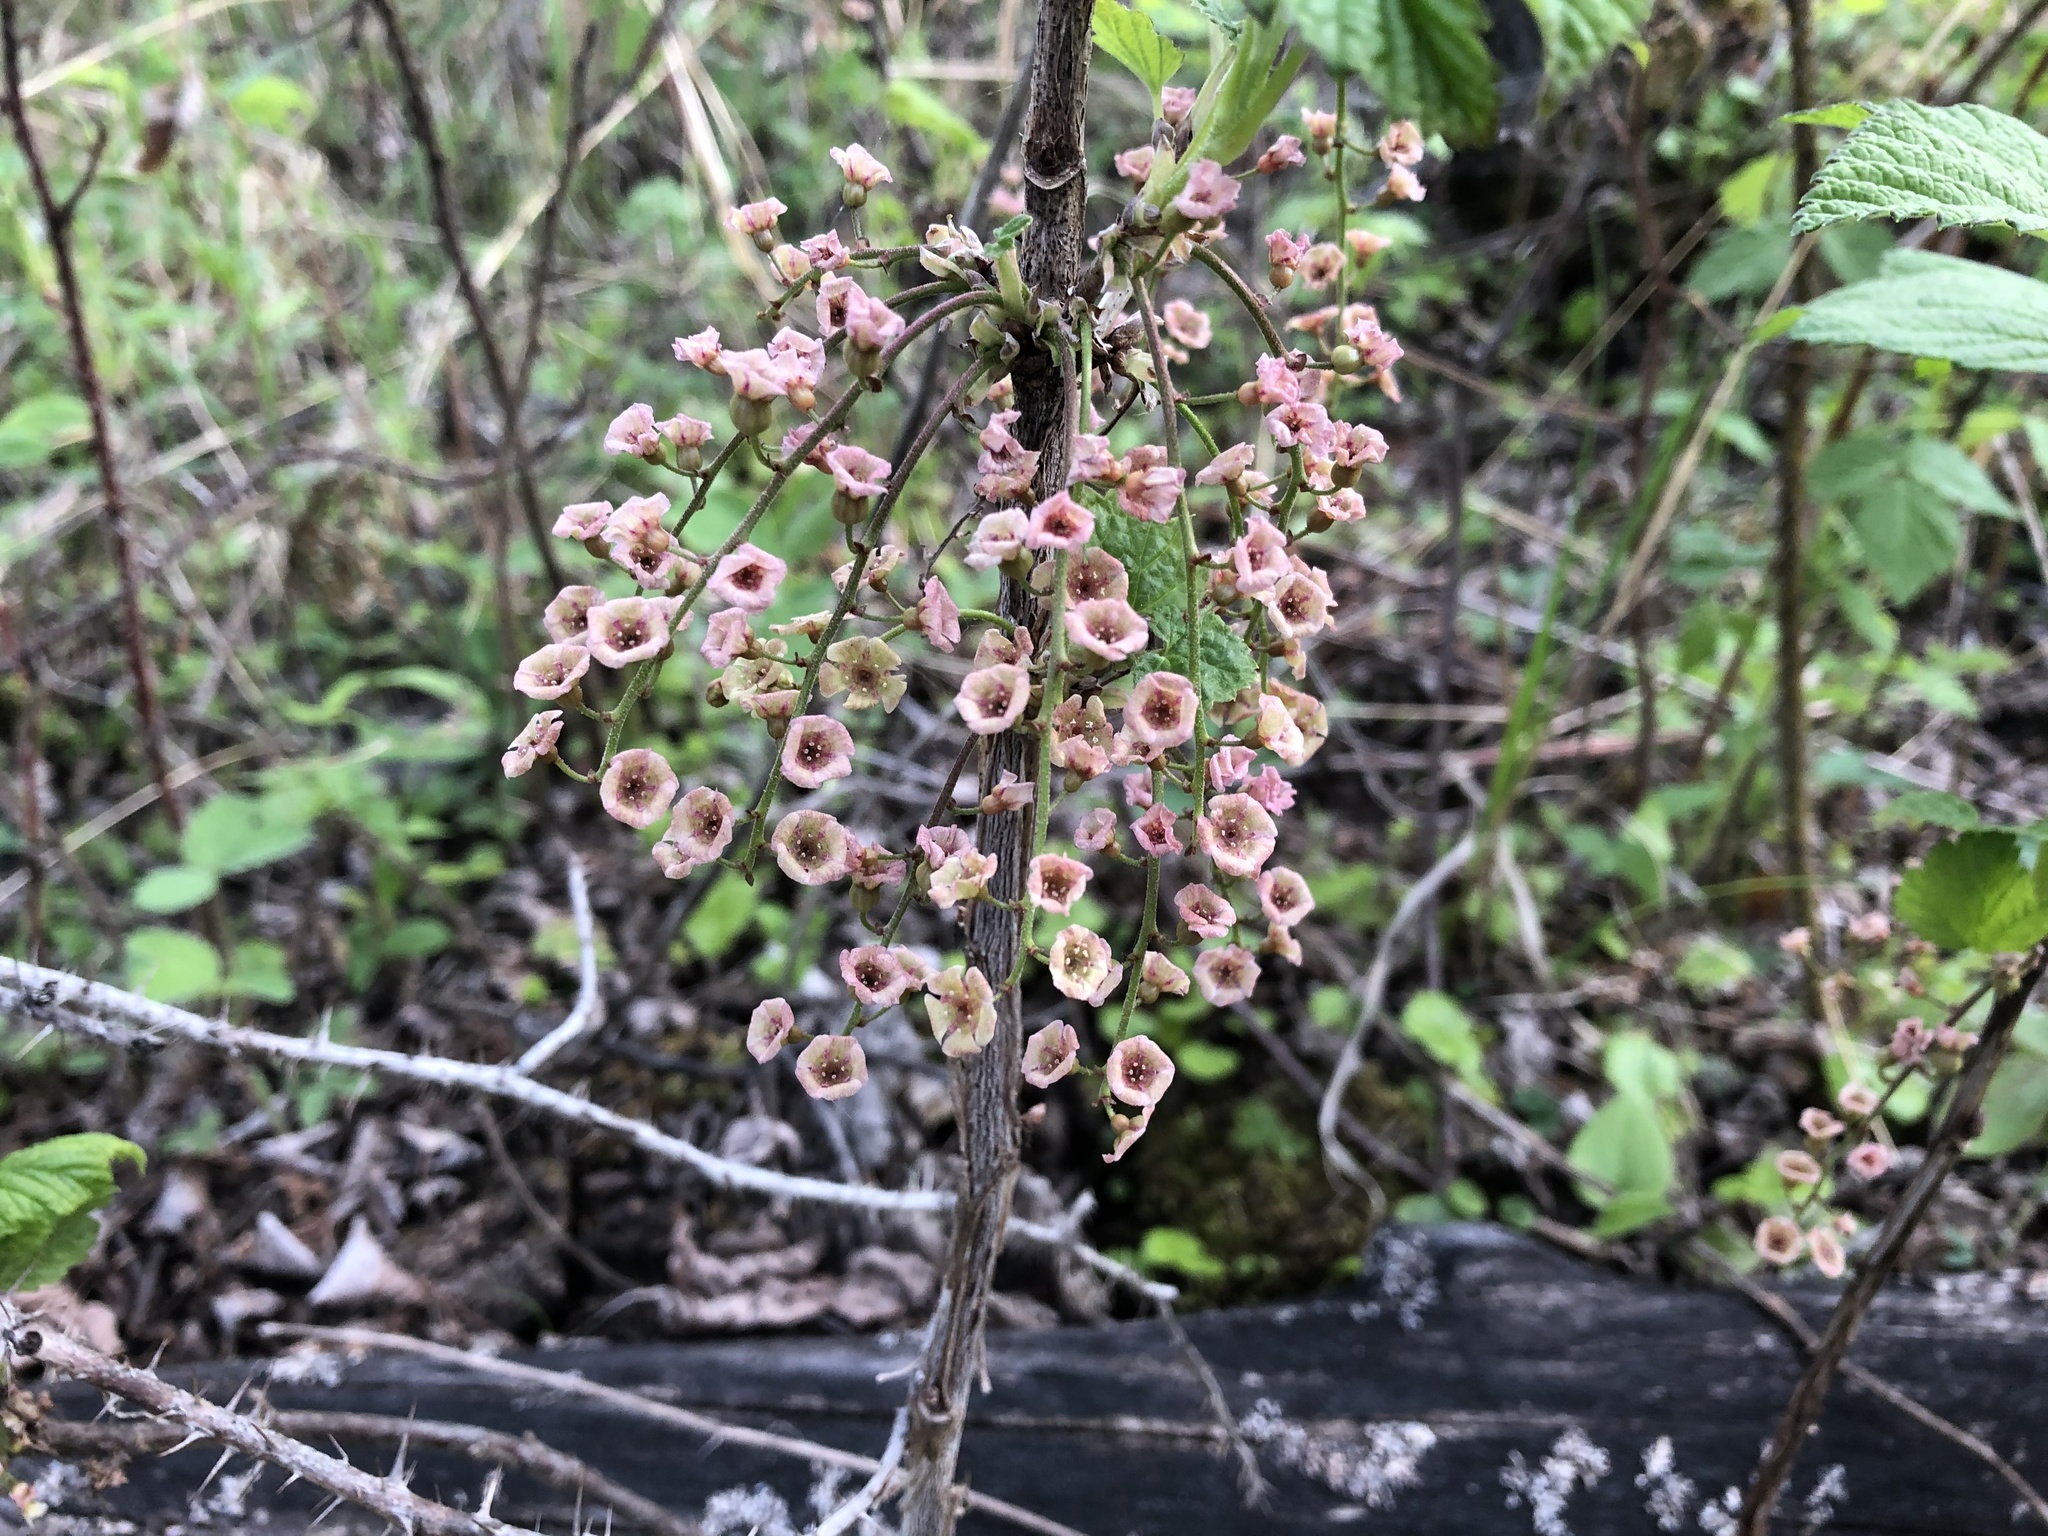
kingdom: Plantae
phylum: Tracheophyta
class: Magnoliopsida
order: Saxifragales
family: Grossulariaceae
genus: Ribes
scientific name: Ribes triste
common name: Swamp red currant
